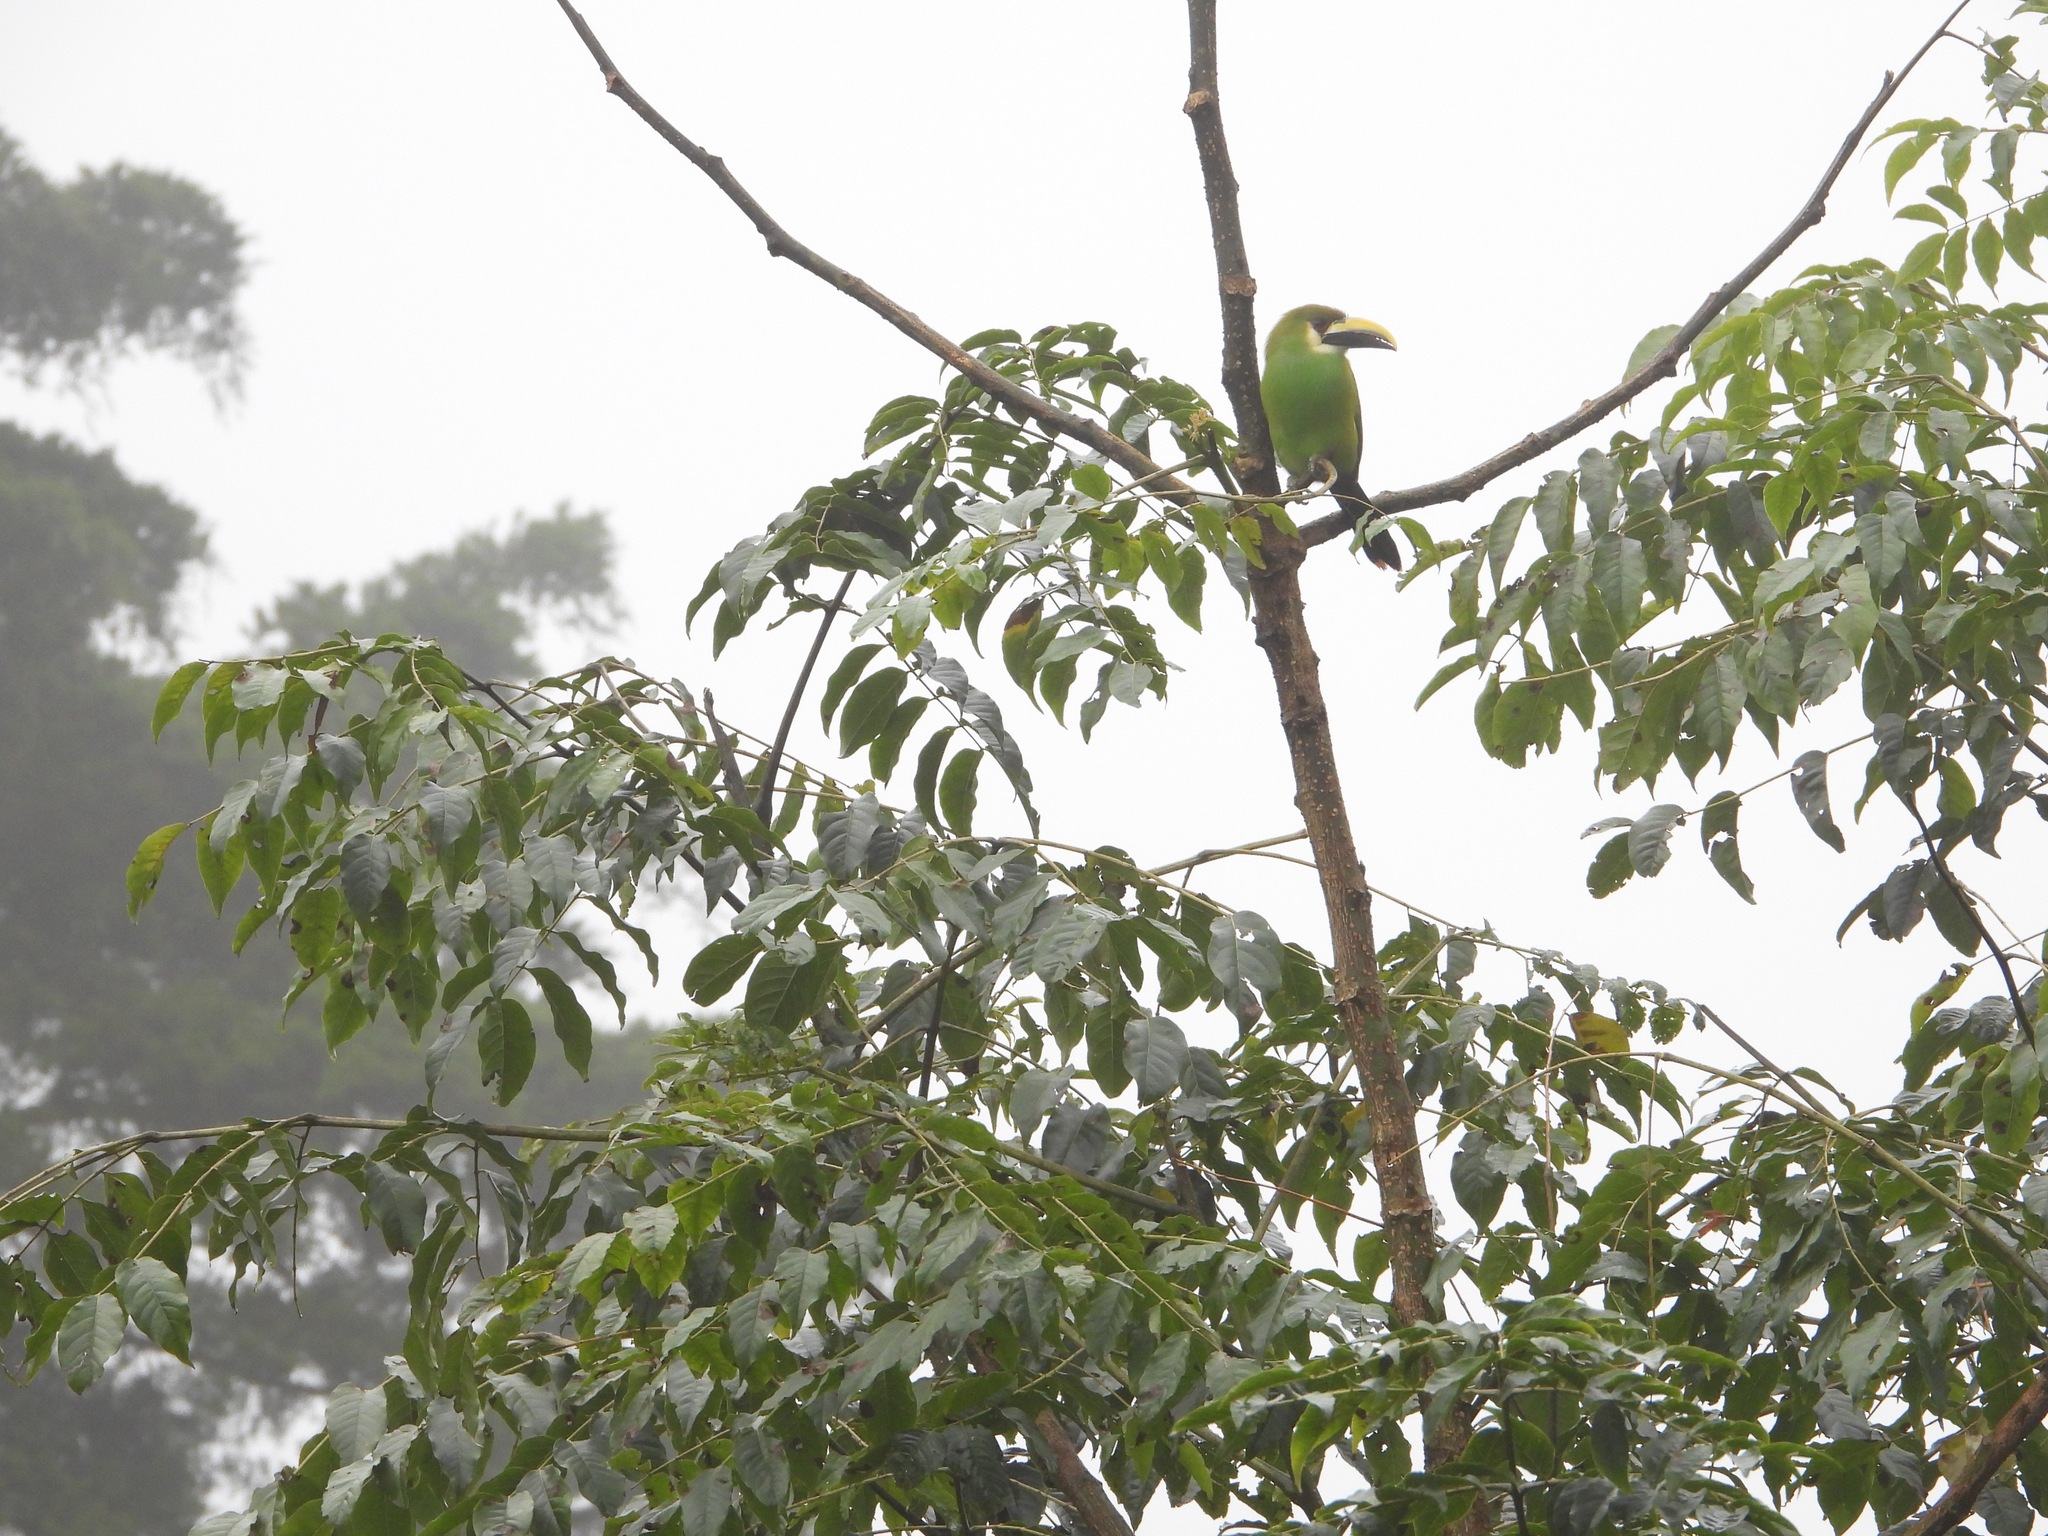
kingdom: Animalia
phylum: Chordata
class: Aves
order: Piciformes
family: Ramphastidae
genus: Aulacorhynchus
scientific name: Aulacorhynchus prasinus
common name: Emerald toucanet
